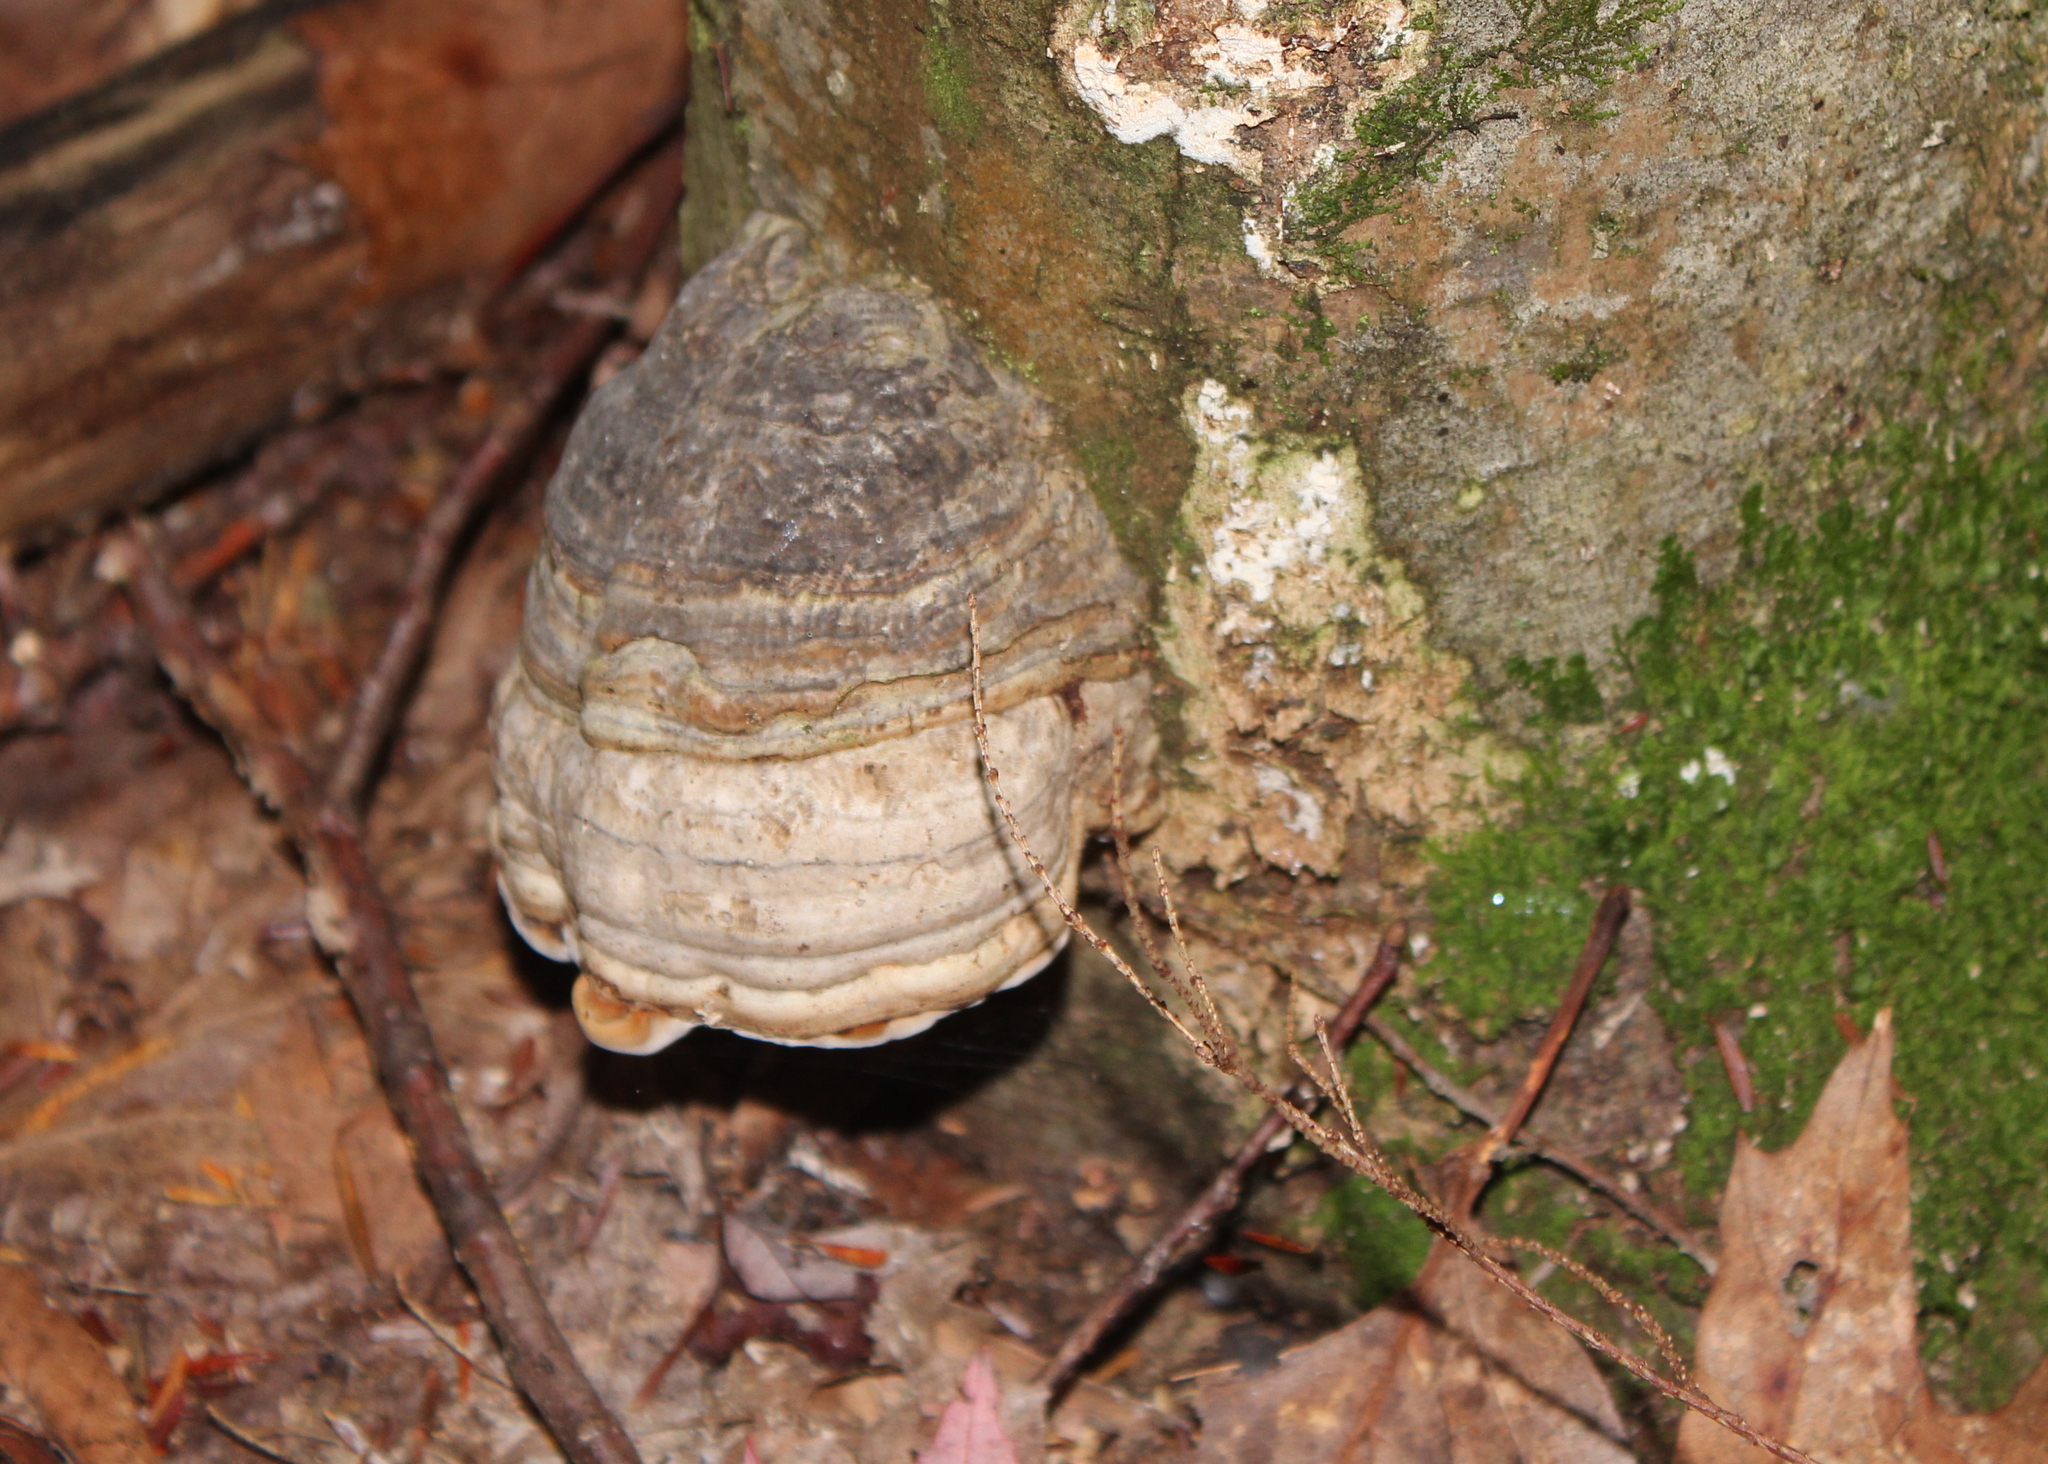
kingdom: Fungi
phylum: Basidiomycota
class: Agaricomycetes
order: Polyporales
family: Polyporaceae
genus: Fomes
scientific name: Fomes fomentarius
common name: Hoof fungus
